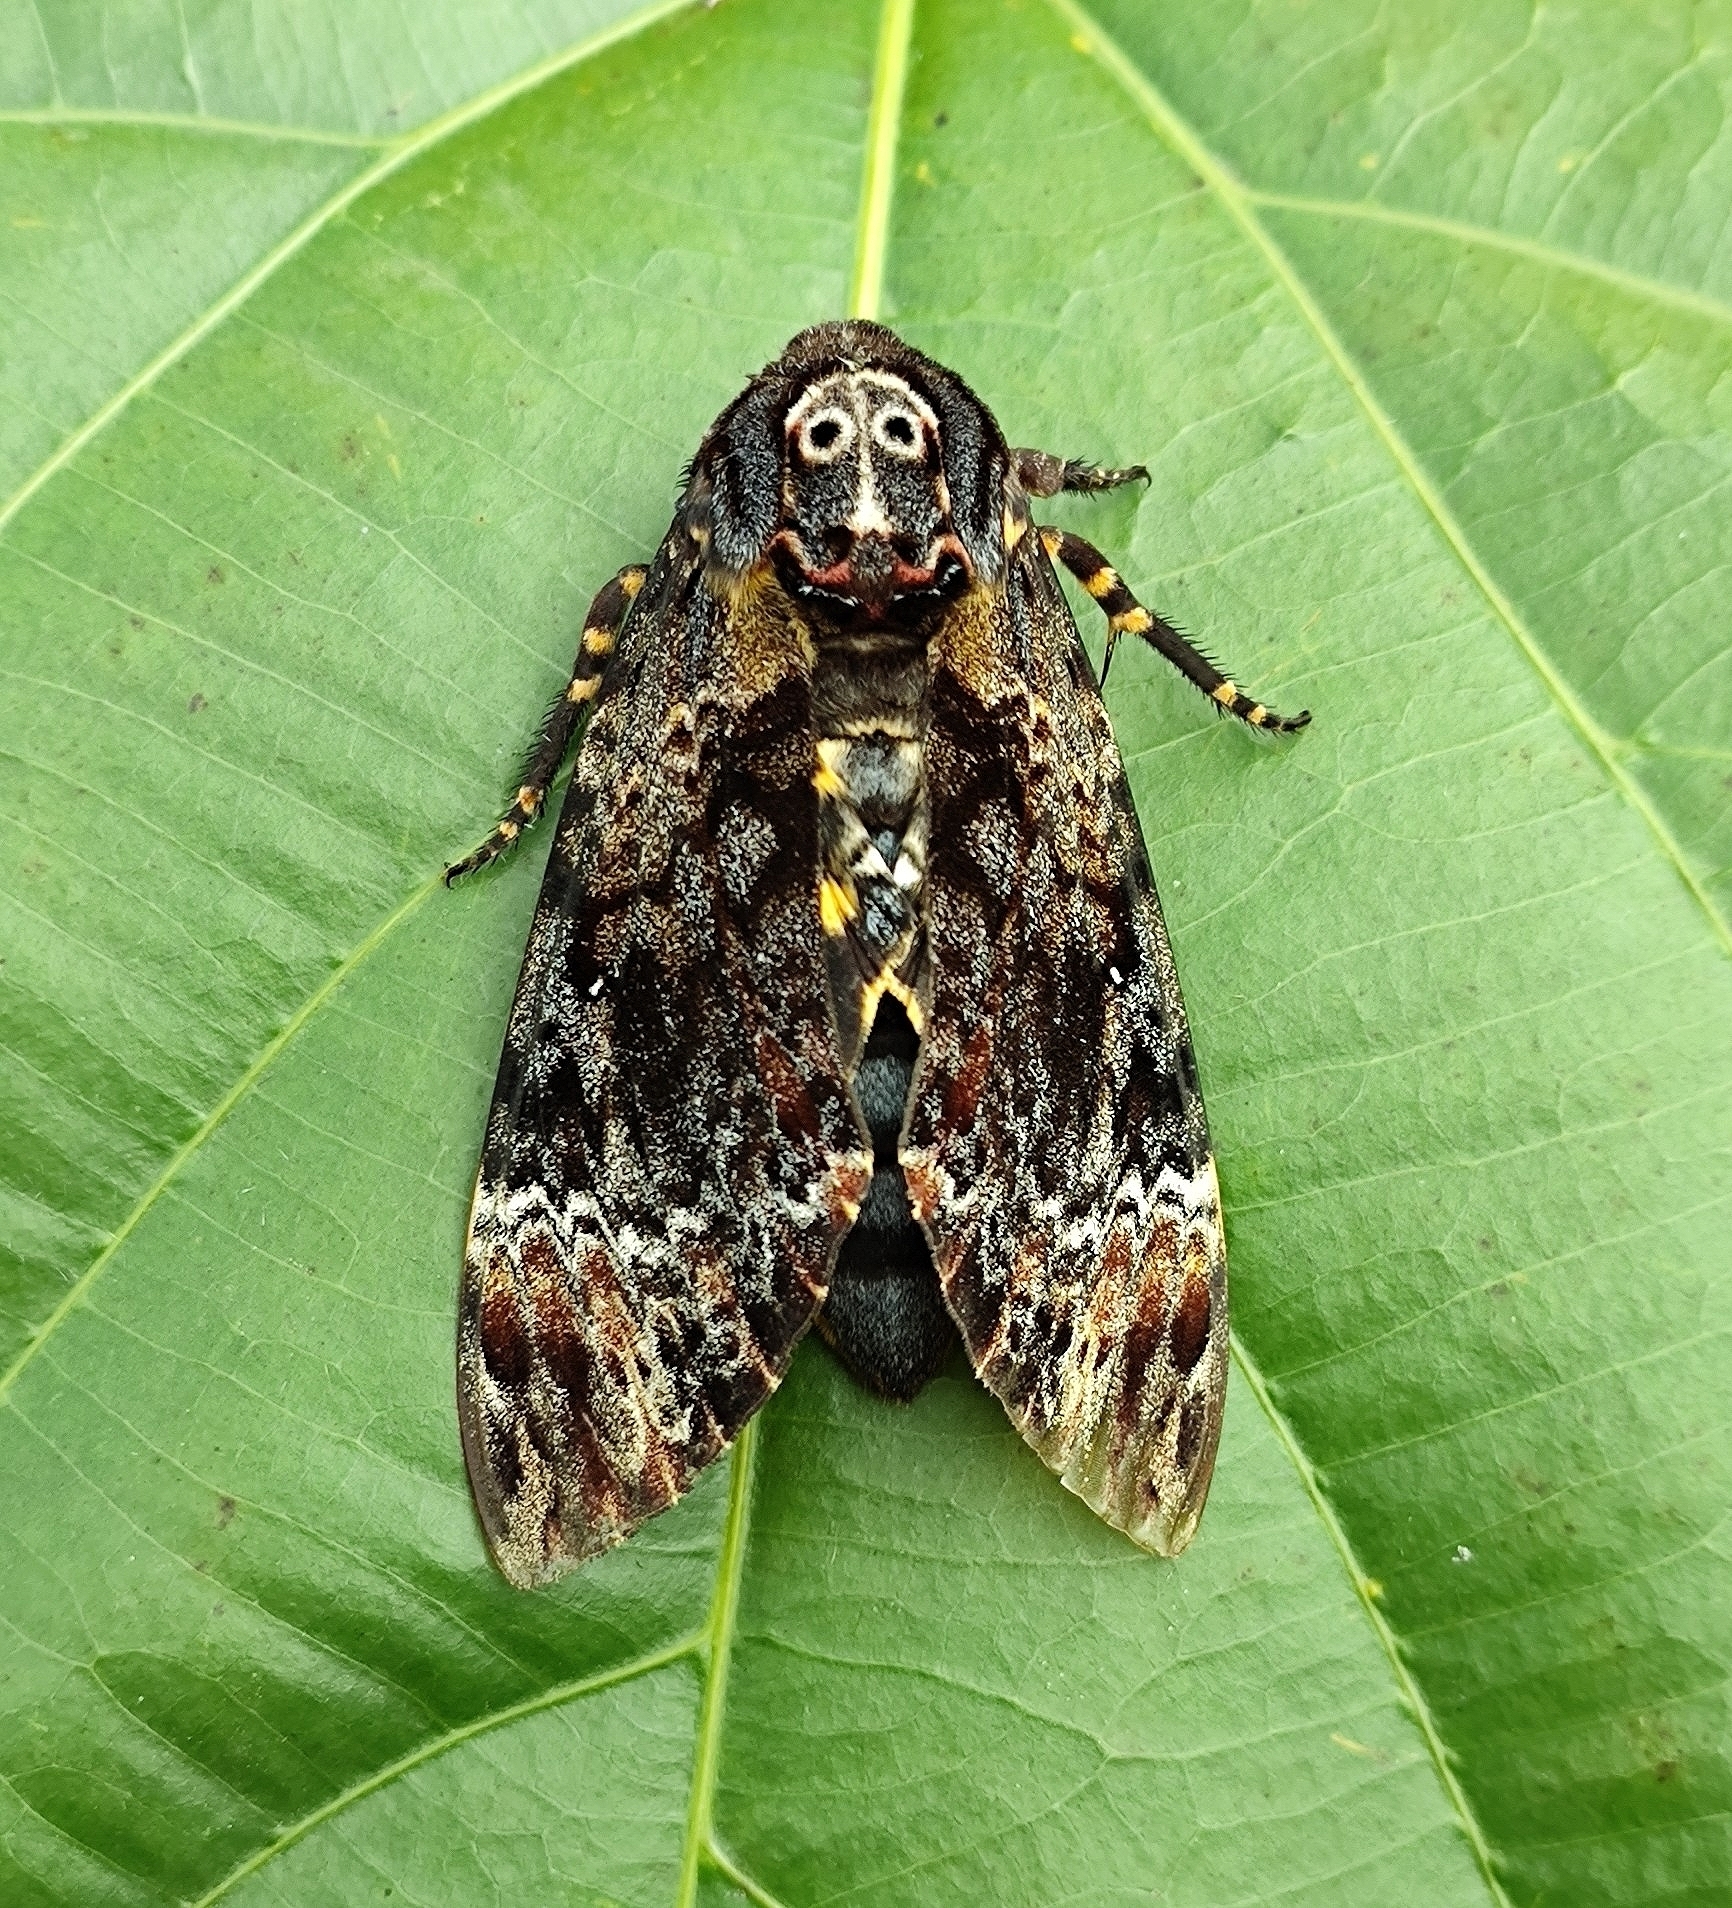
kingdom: Animalia
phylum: Arthropoda
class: Insecta
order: Lepidoptera
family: Sphingidae
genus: Acherontia
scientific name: Acherontia lachesis
